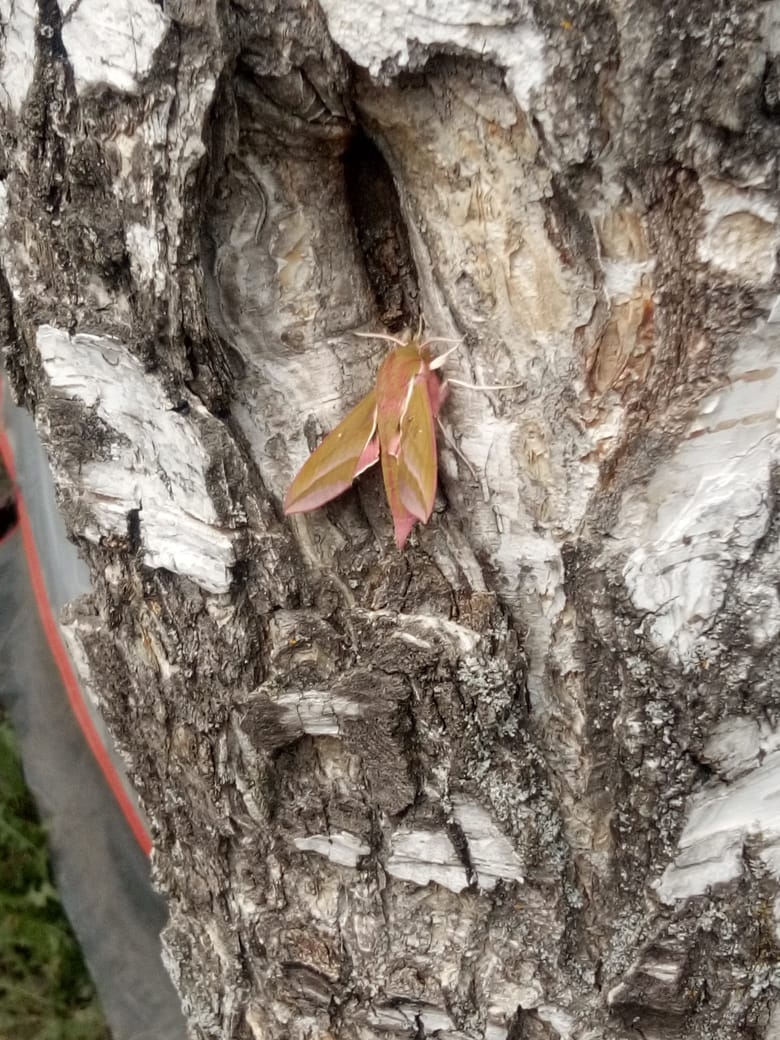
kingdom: Animalia
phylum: Arthropoda
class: Insecta
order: Lepidoptera
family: Sphingidae
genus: Deilephila
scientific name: Deilephila elpenor
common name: Elephant hawk-moth
